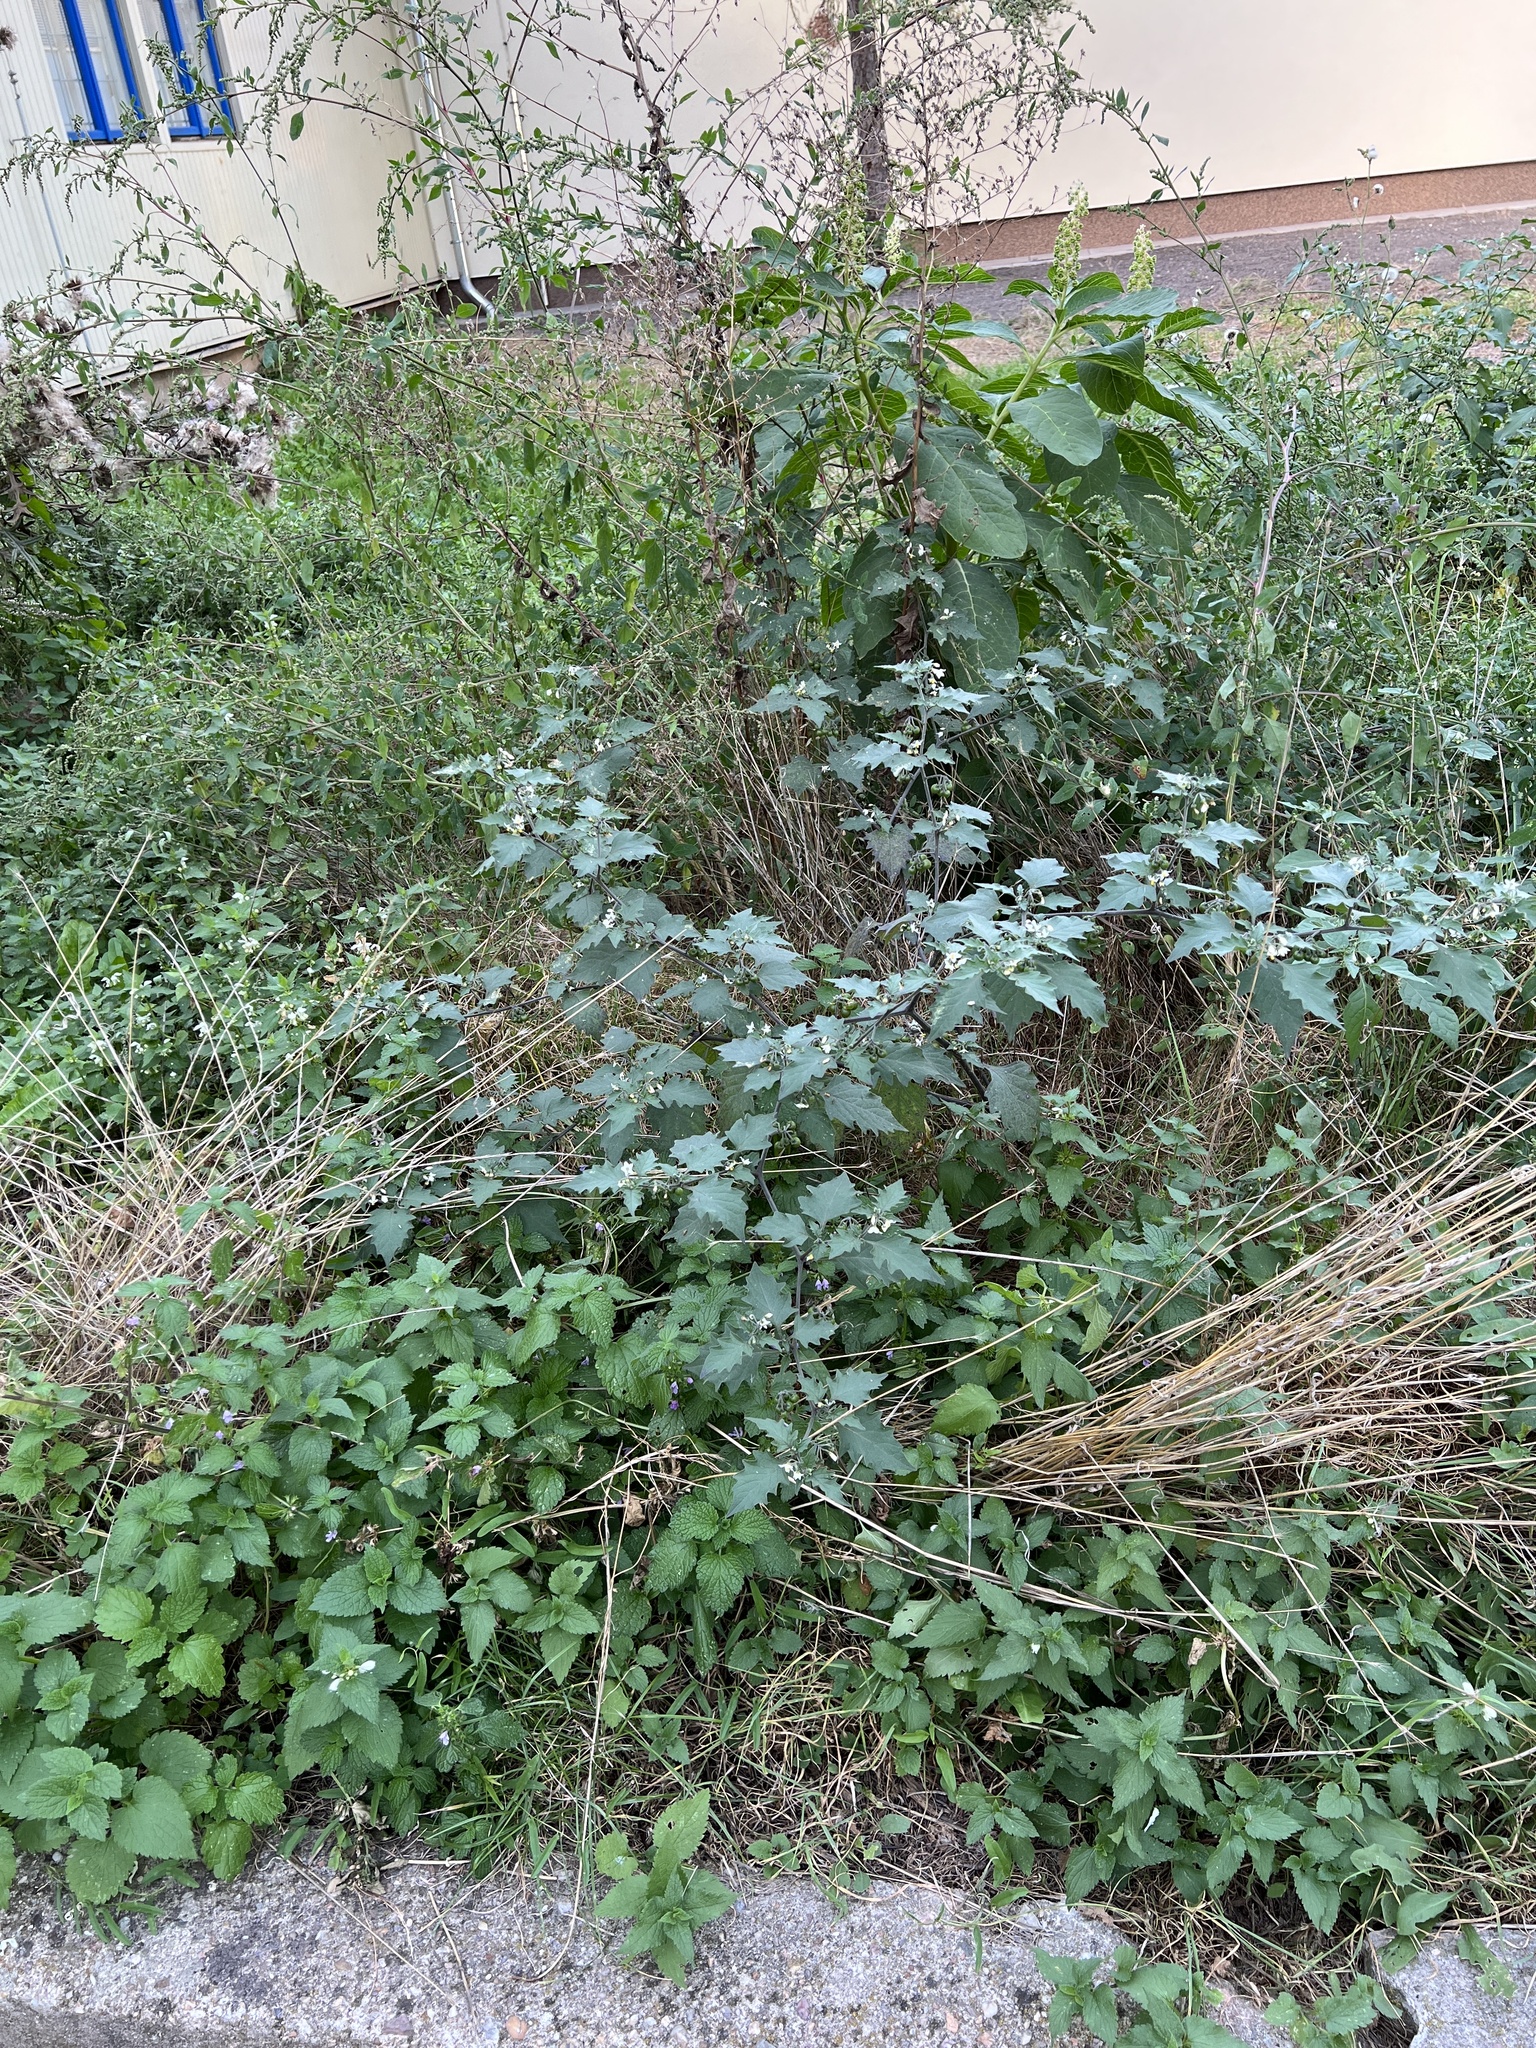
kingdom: Plantae
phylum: Tracheophyta
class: Magnoliopsida
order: Solanales
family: Solanaceae
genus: Solanum
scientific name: Solanum nigrum
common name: Black nightshade
